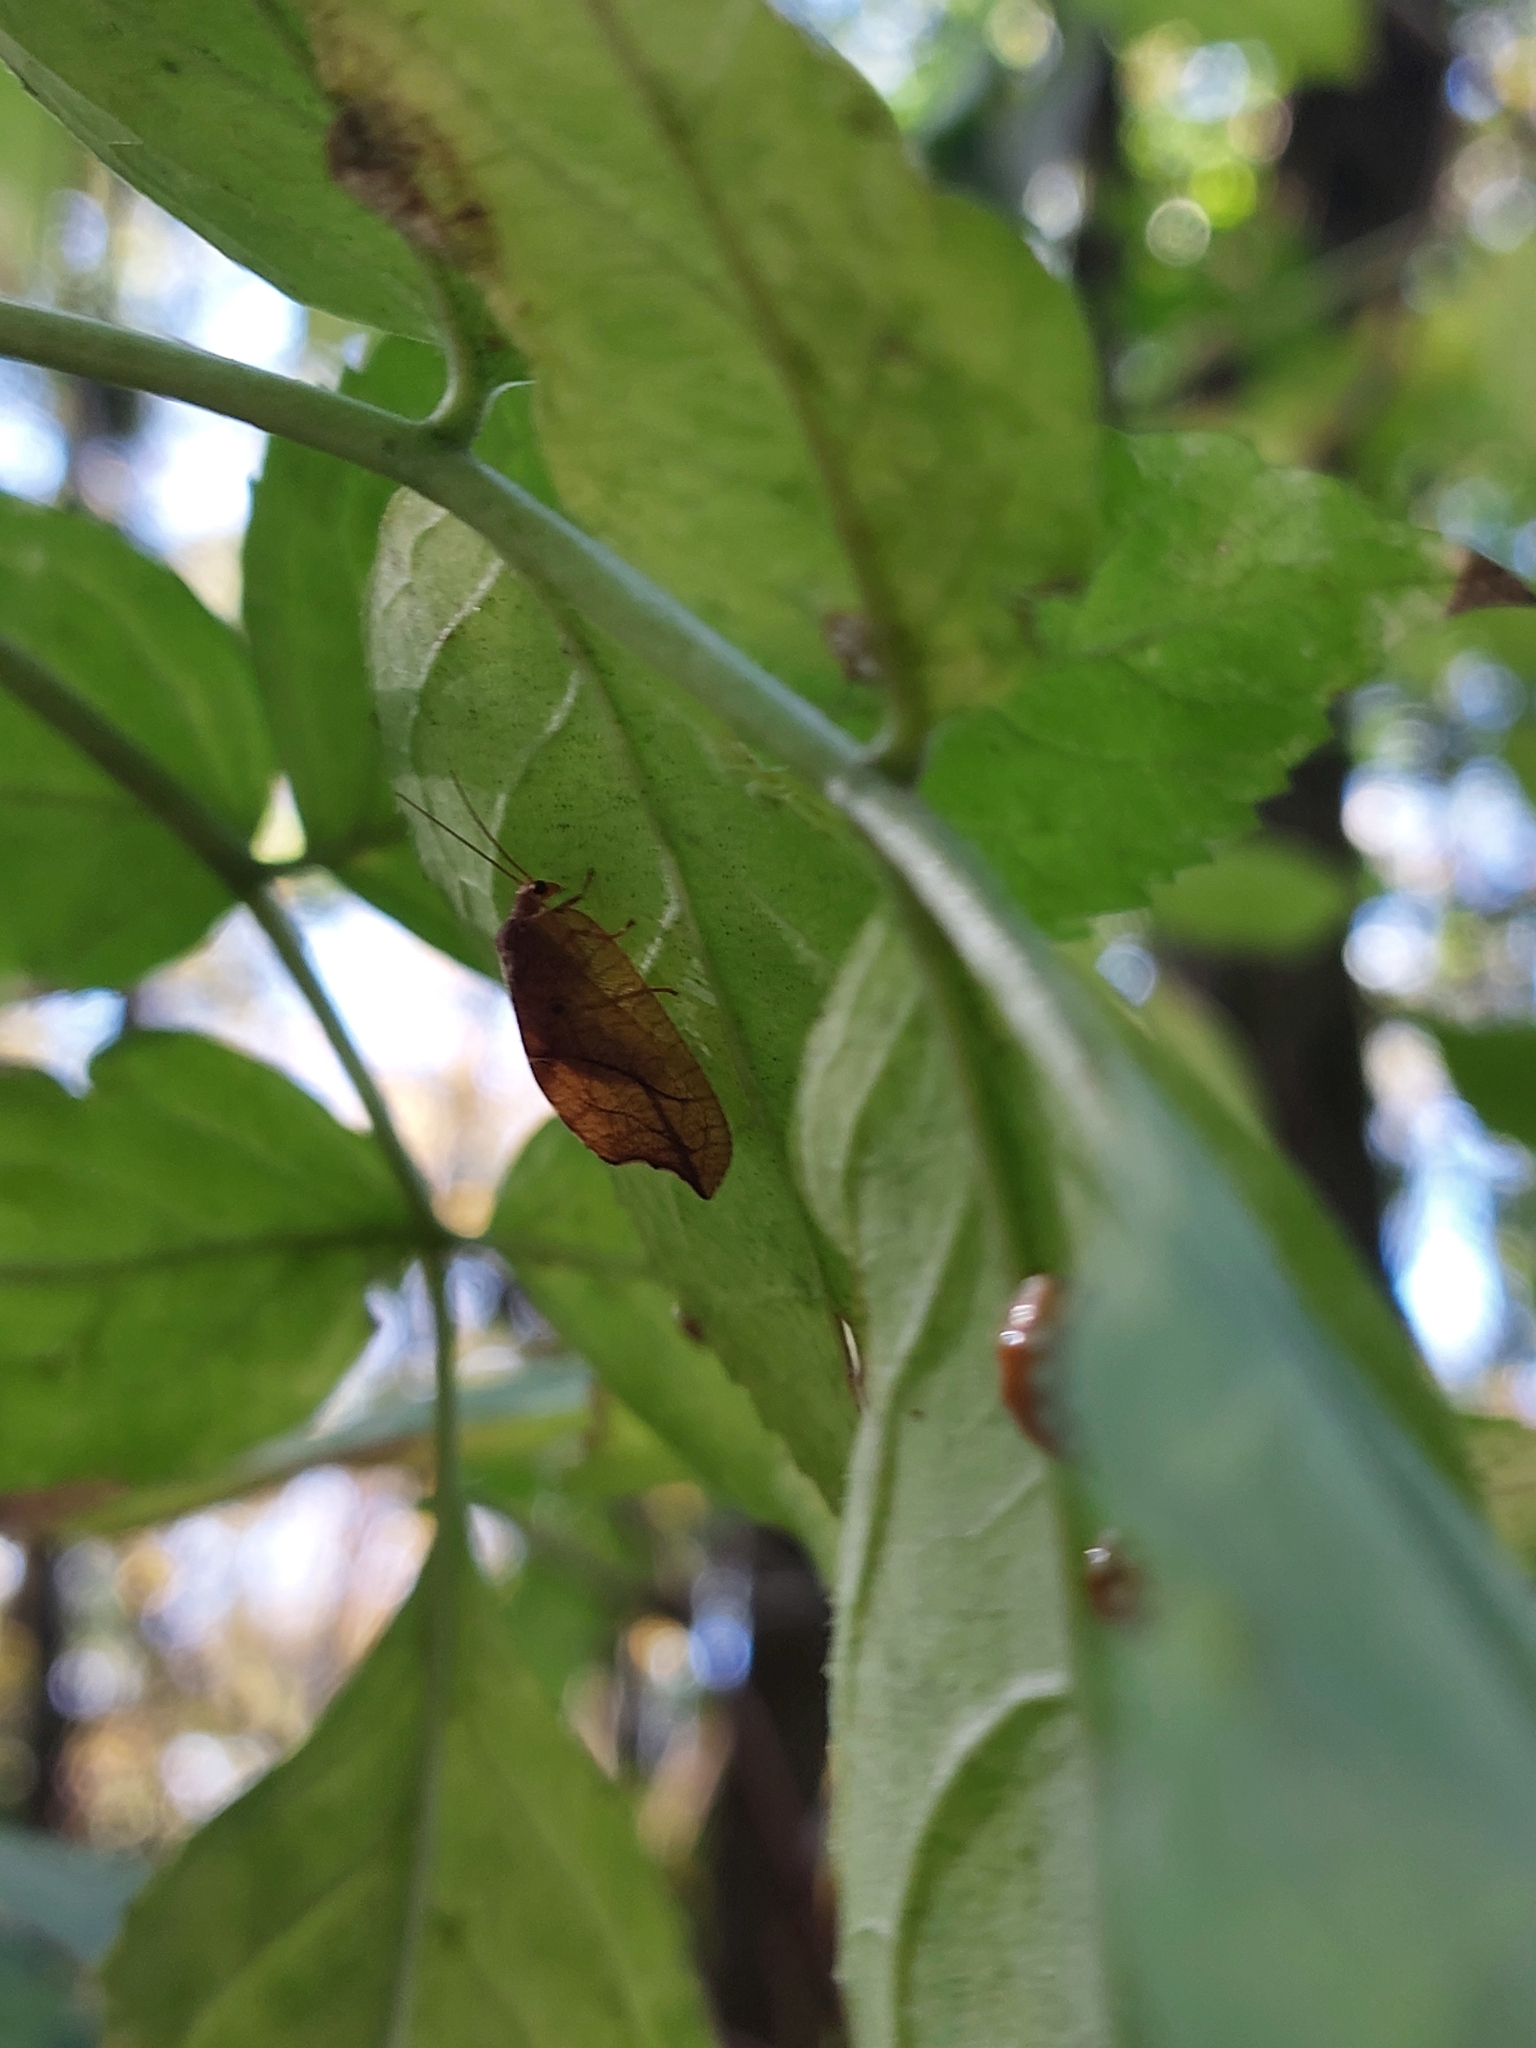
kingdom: Animalia
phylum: Arthropoda
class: Insecta
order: Neuroptera
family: Hemerobiidae
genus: Drepanepteryx
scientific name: Drepanepteryx phalaenoides
